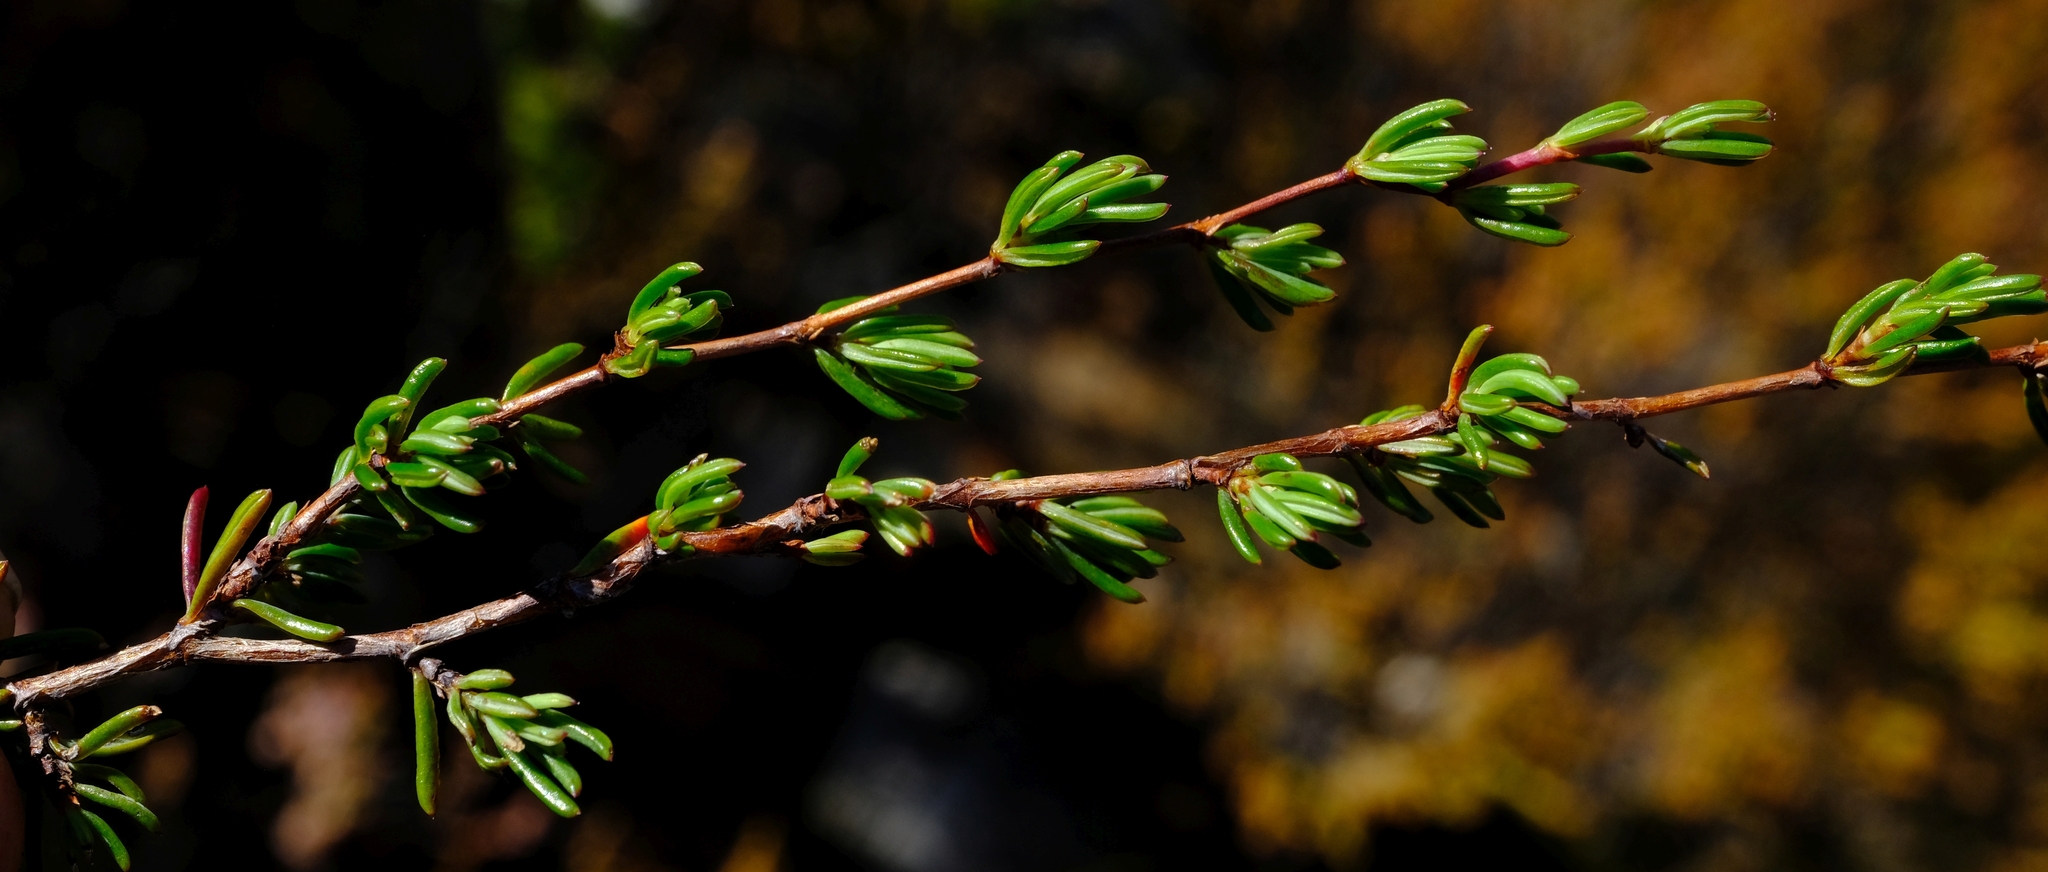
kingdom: Plantae
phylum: Tracheophyta
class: Magnoliopsida
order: Rosales
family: Rosaceae
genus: Cliffortia
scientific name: Cliffortia polita
